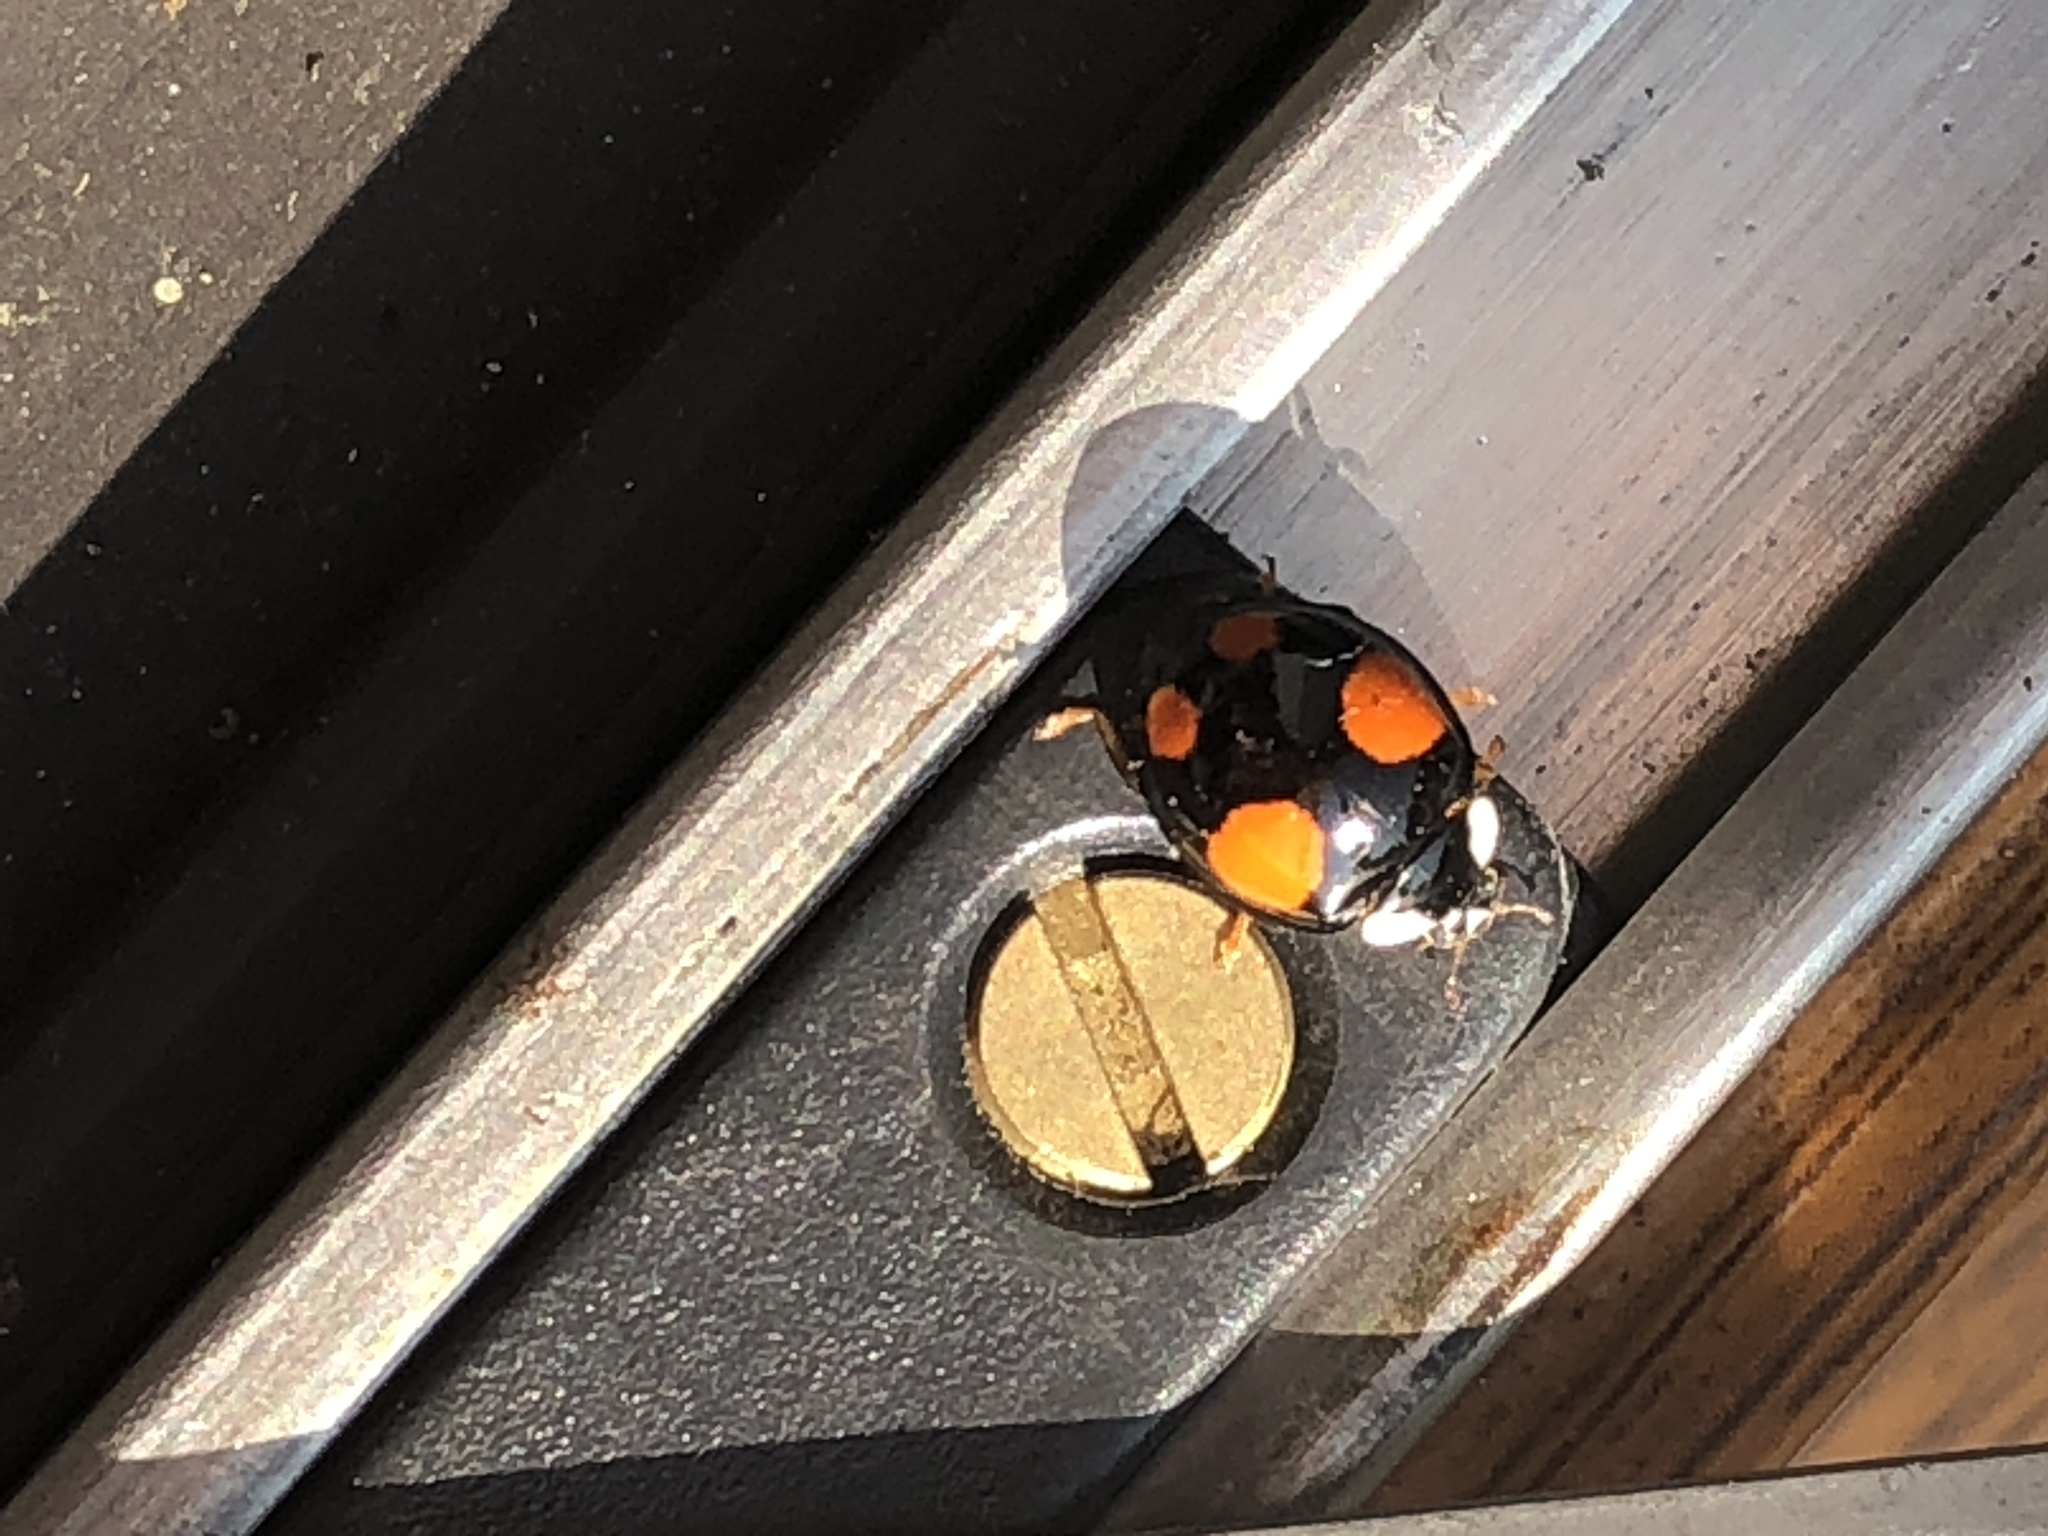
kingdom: Animalia
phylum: Arthropoda
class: Insecta
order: Coleoptera
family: Coccinellidae
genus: Harmonia
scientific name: Harmonia axyridis
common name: Harlequin ladybird
